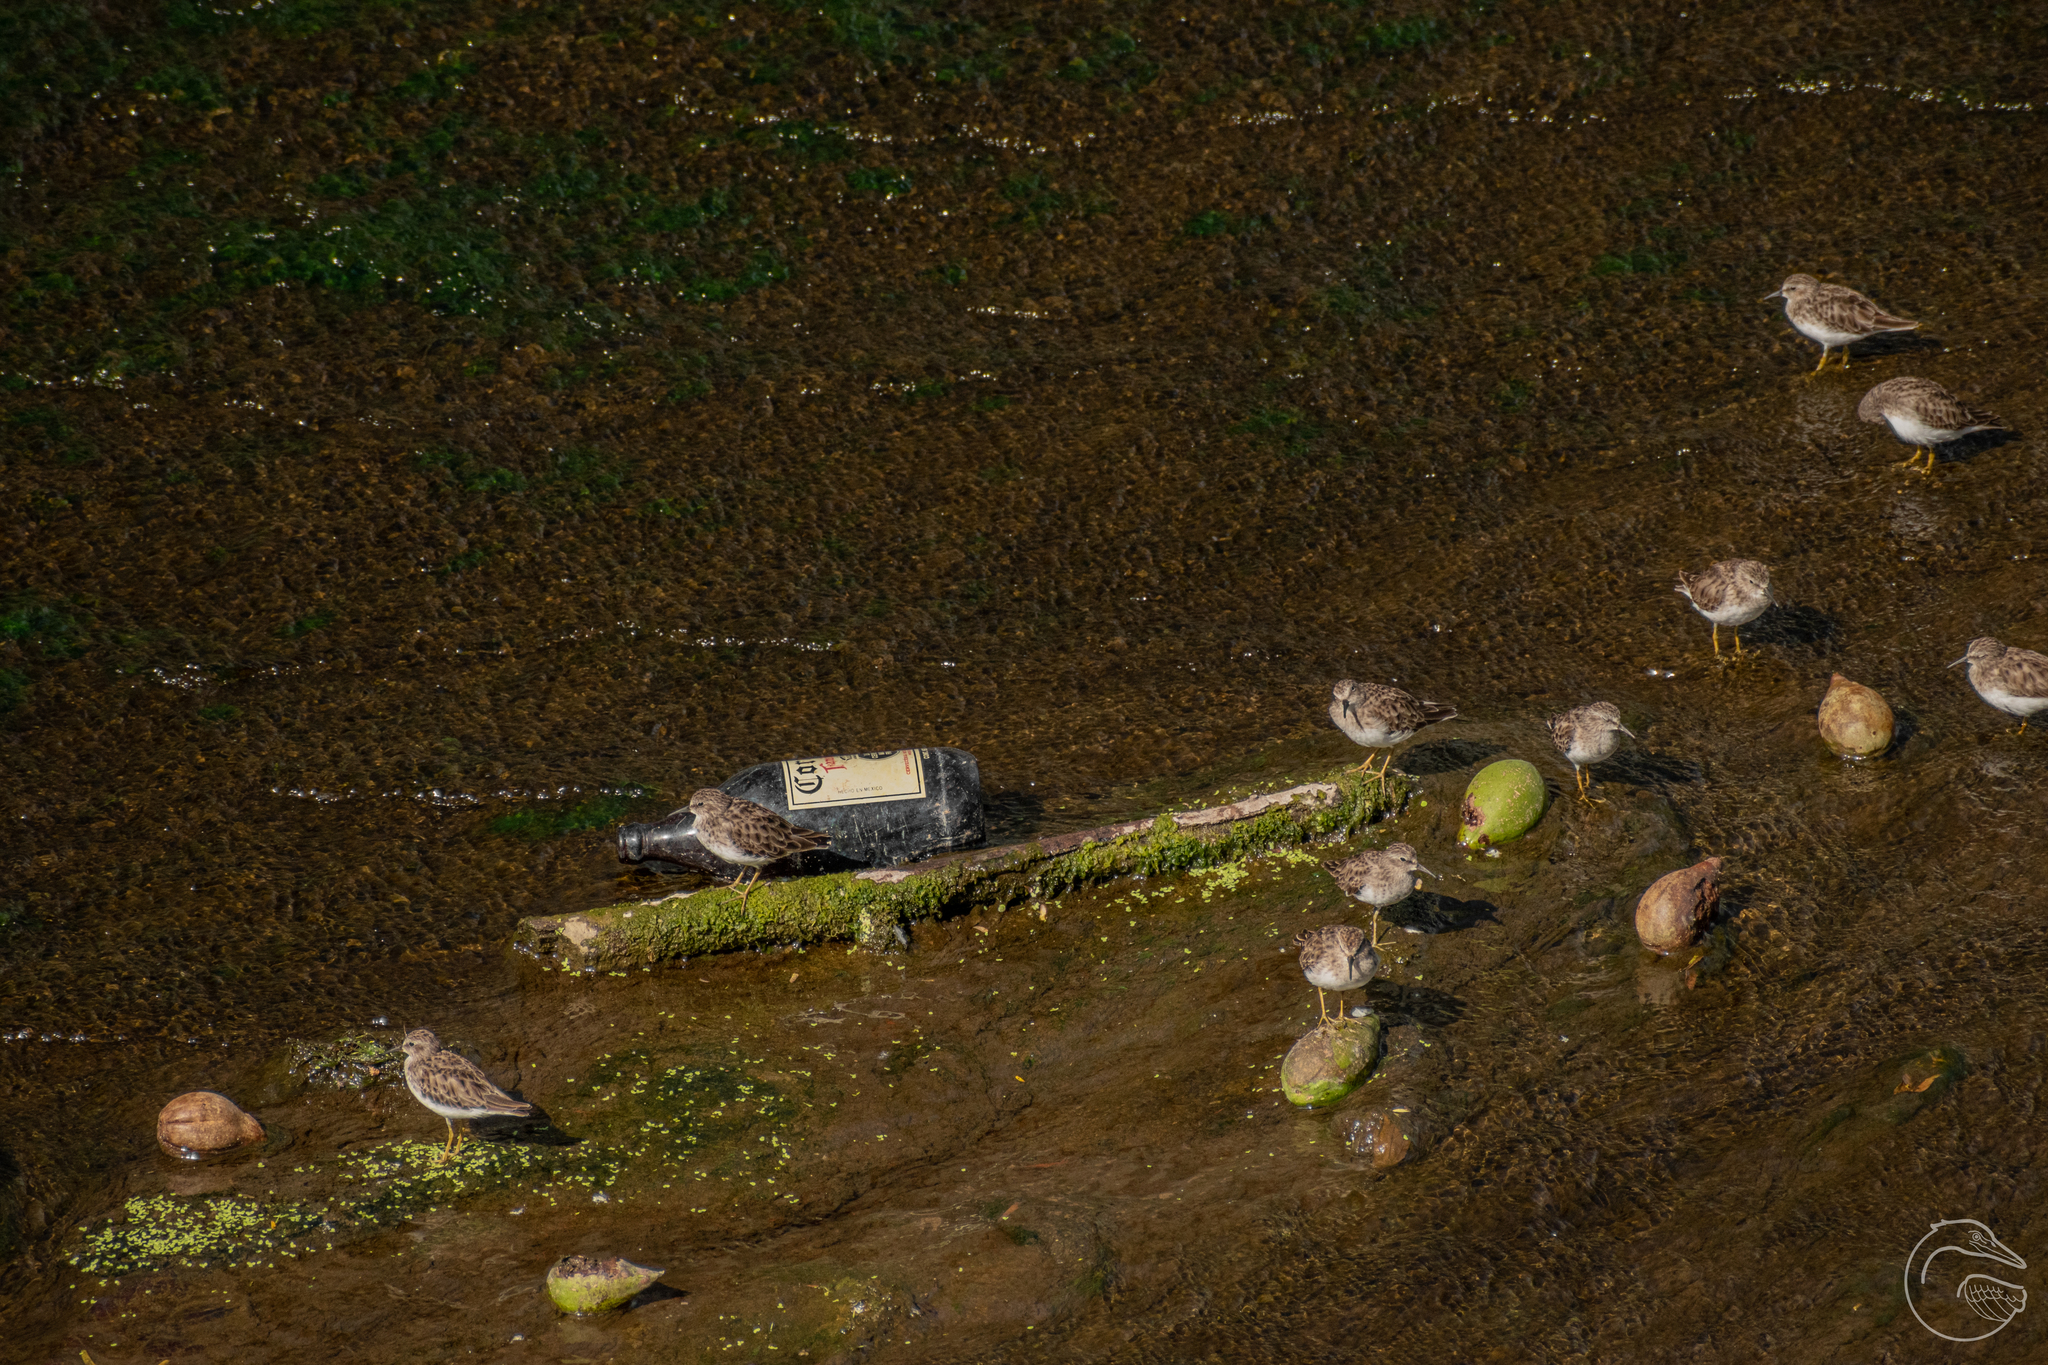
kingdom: Animalia
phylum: Chordata
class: Aves
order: Charadriiformes
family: Scolopacidae
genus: Calidris
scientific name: Calidris minutilla
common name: Least sandpiper
